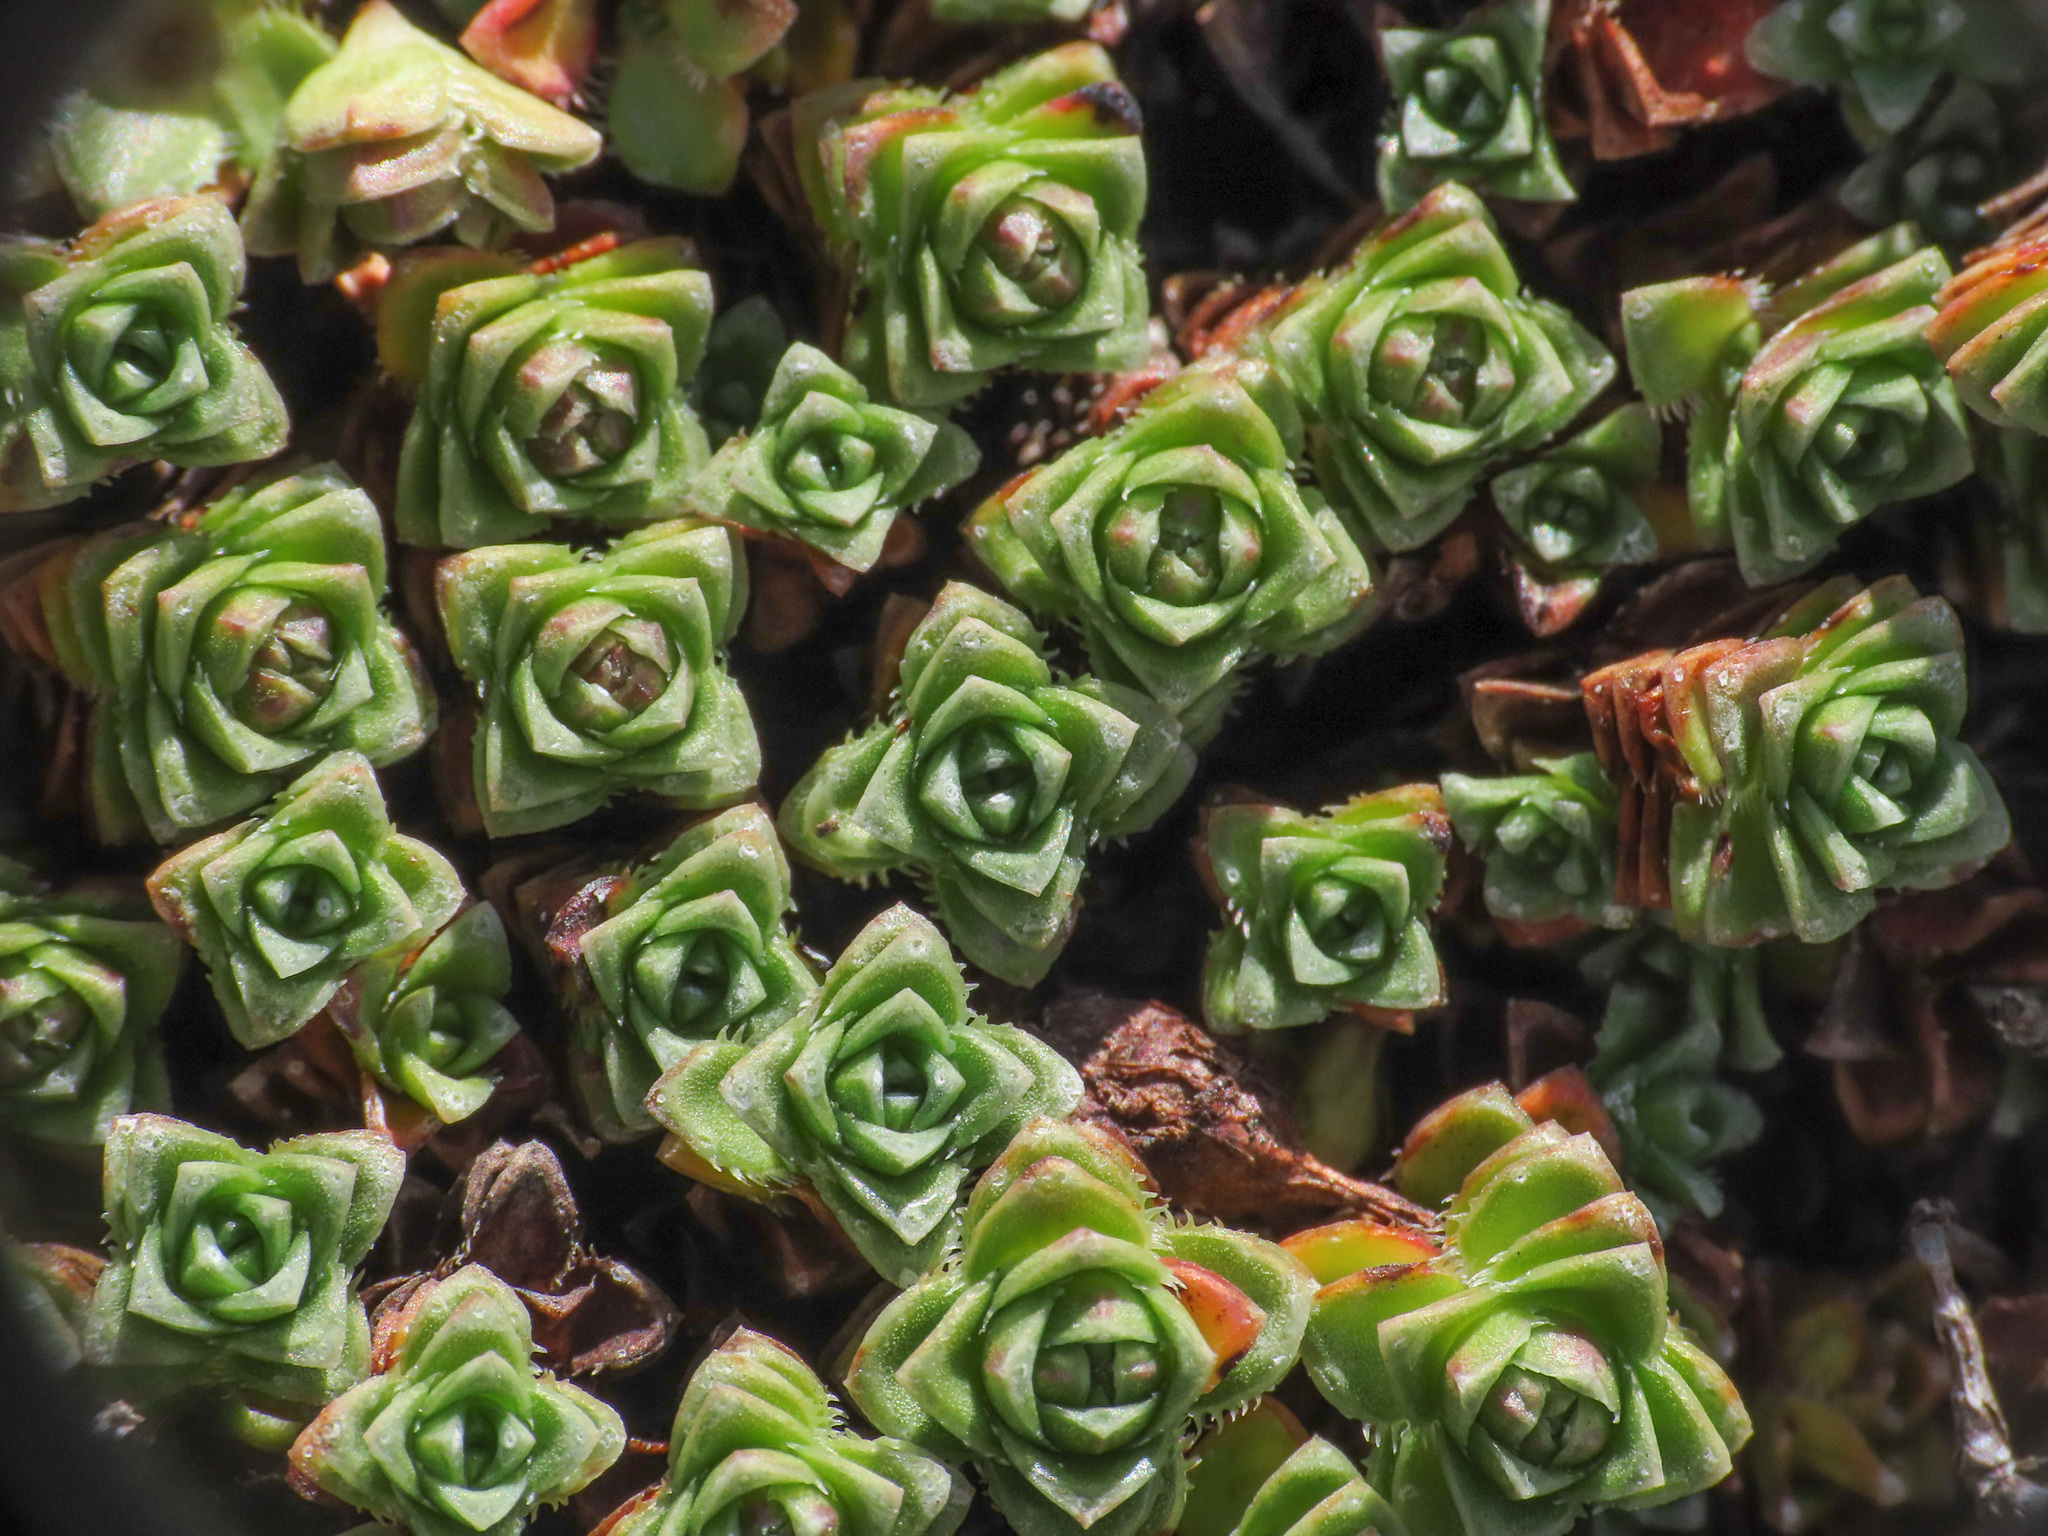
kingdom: Plantae
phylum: Tracheophyta
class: Magnoliopsida
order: Saxifragales
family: Saxifragaceae
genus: Saxifraga
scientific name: Saxifraga oppositifolia
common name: Purple saxifrage
